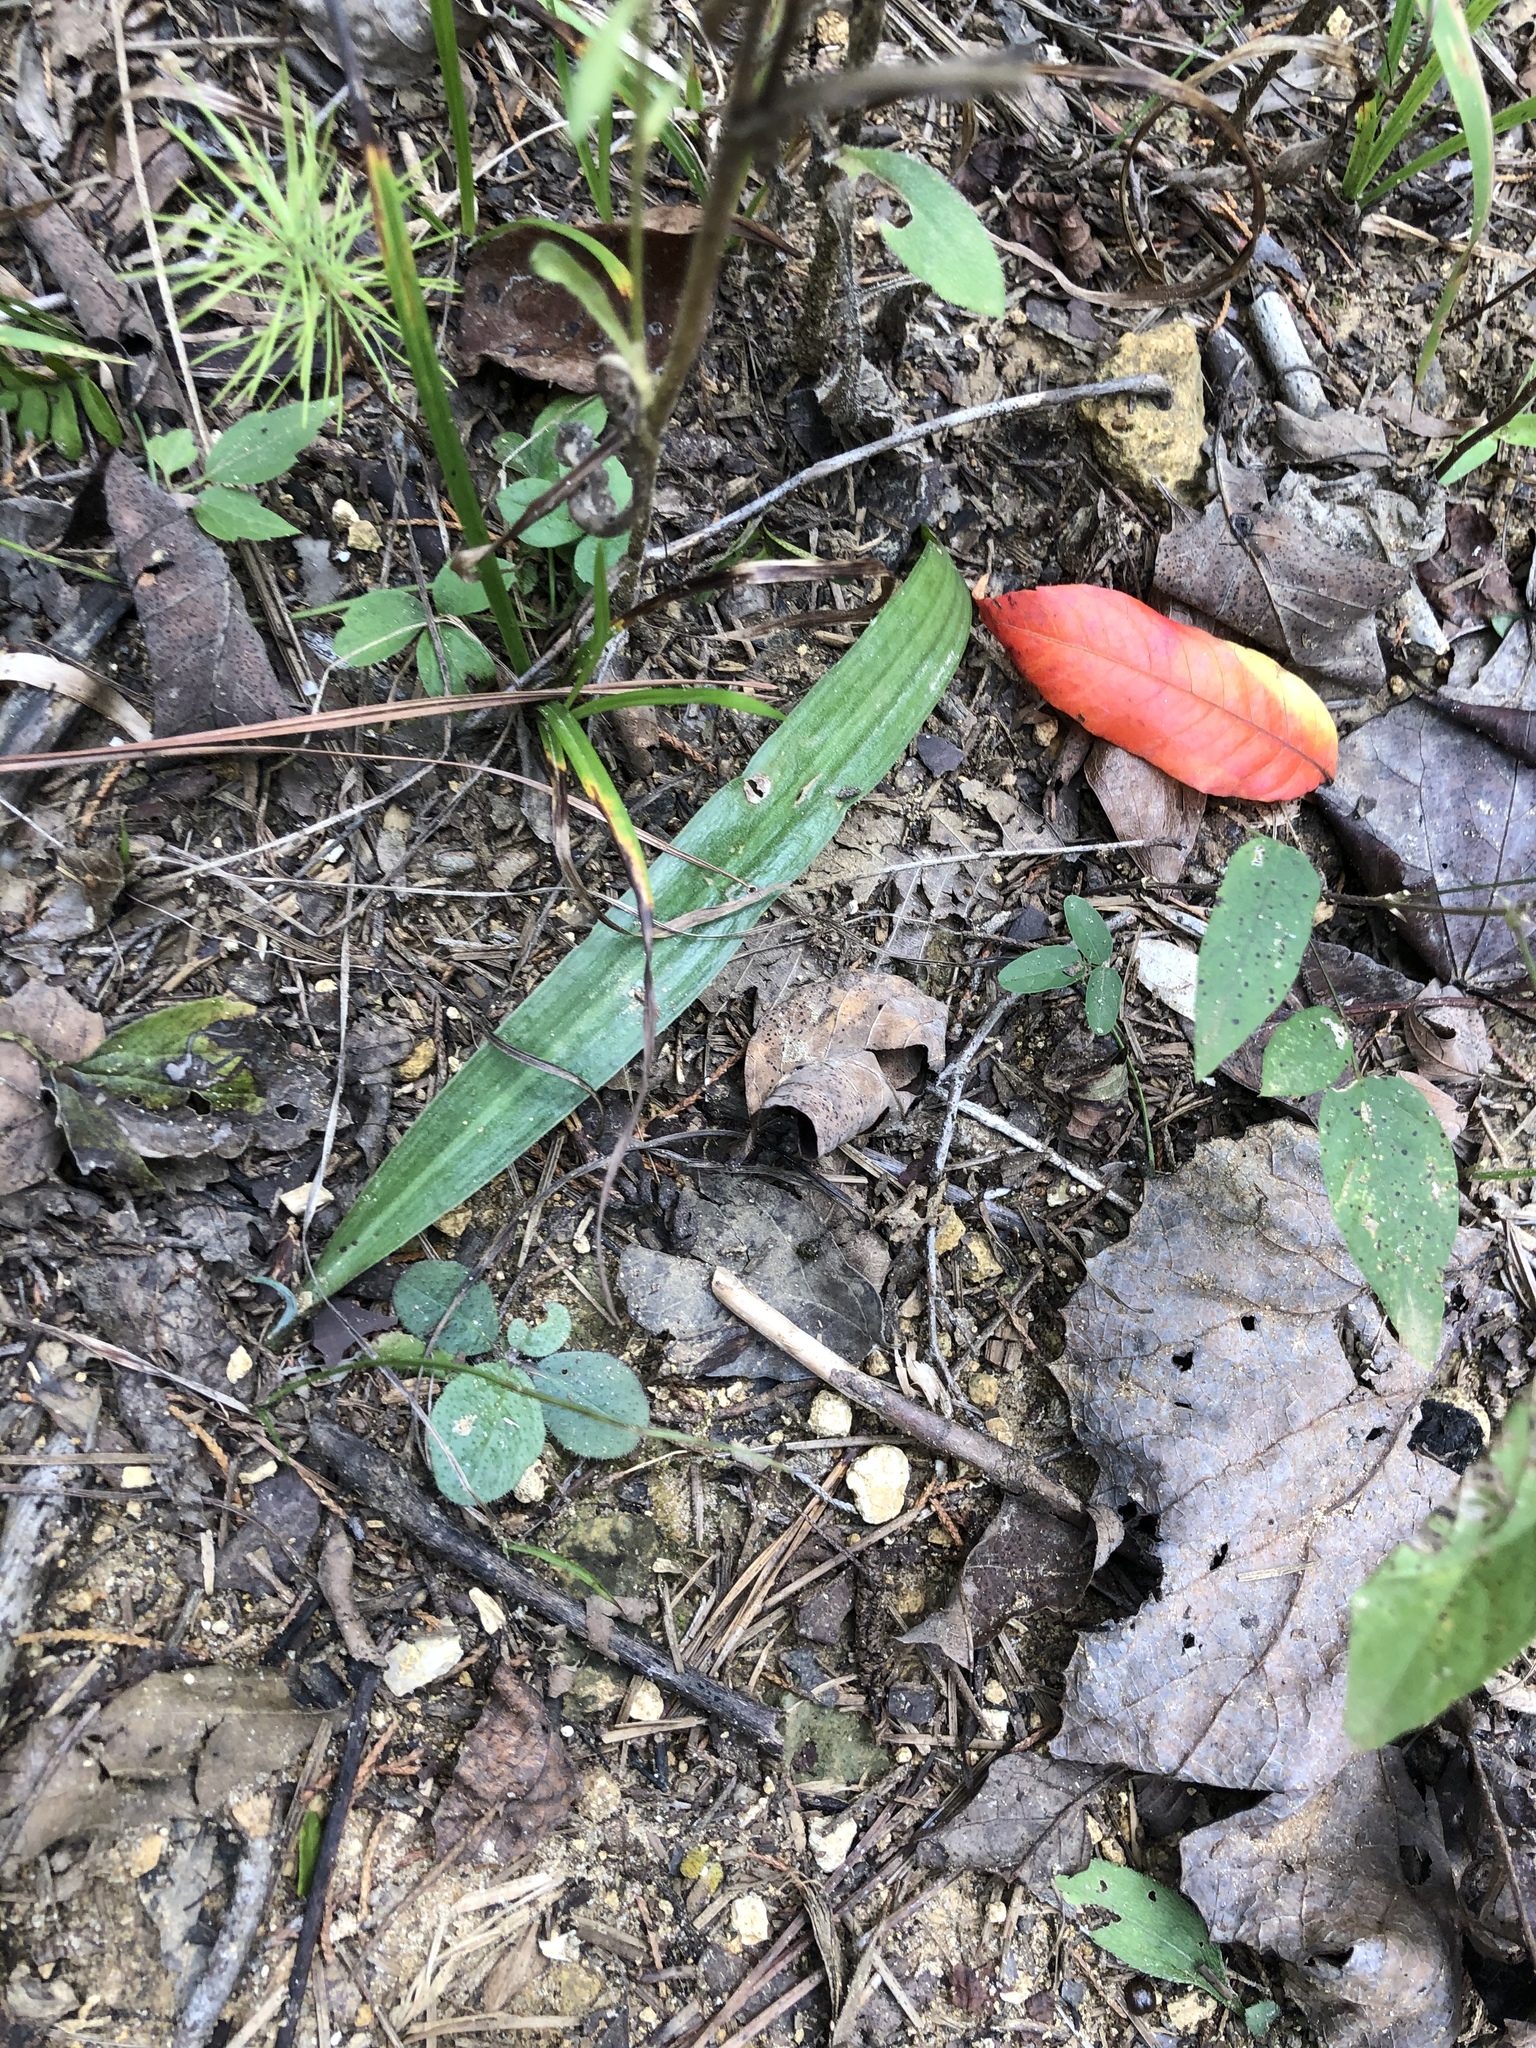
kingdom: Plantae
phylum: Tracheophyta
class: Liliopsida
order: Asparagales
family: Asparagaceae
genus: Agave
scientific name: Agave virginica
